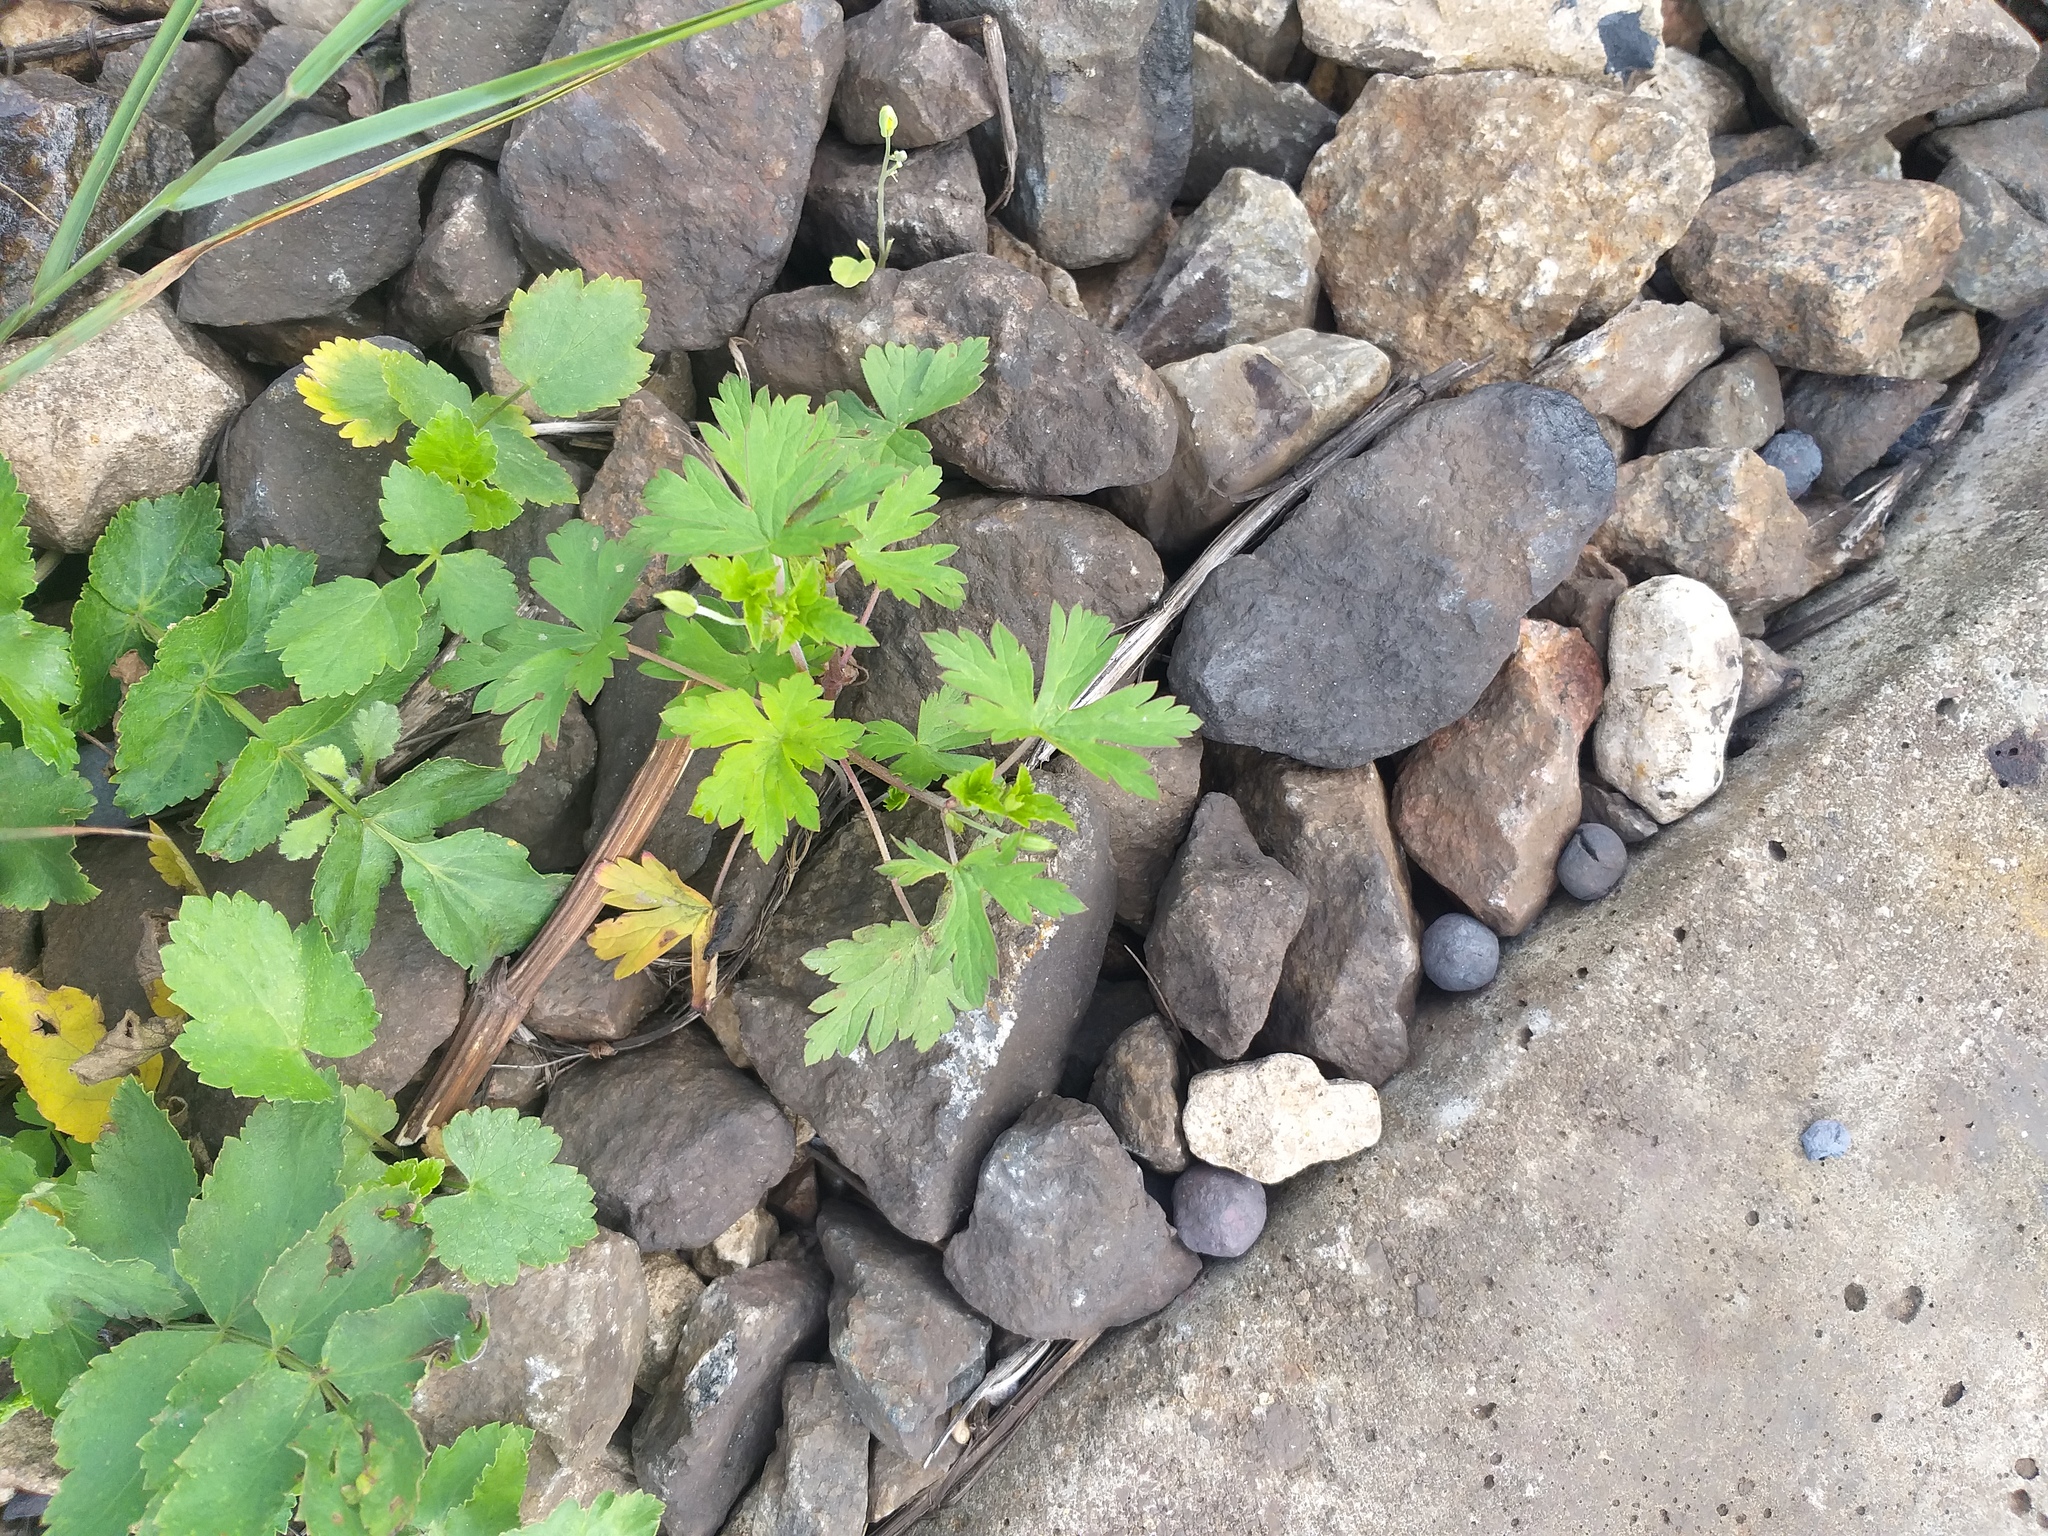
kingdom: Plantae
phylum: Tracheophyta
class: Magnoliopsida
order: Geraniales
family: Geraniaceae
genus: Geranium
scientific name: Geranium sibiricum
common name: Siberian crane's-bill
